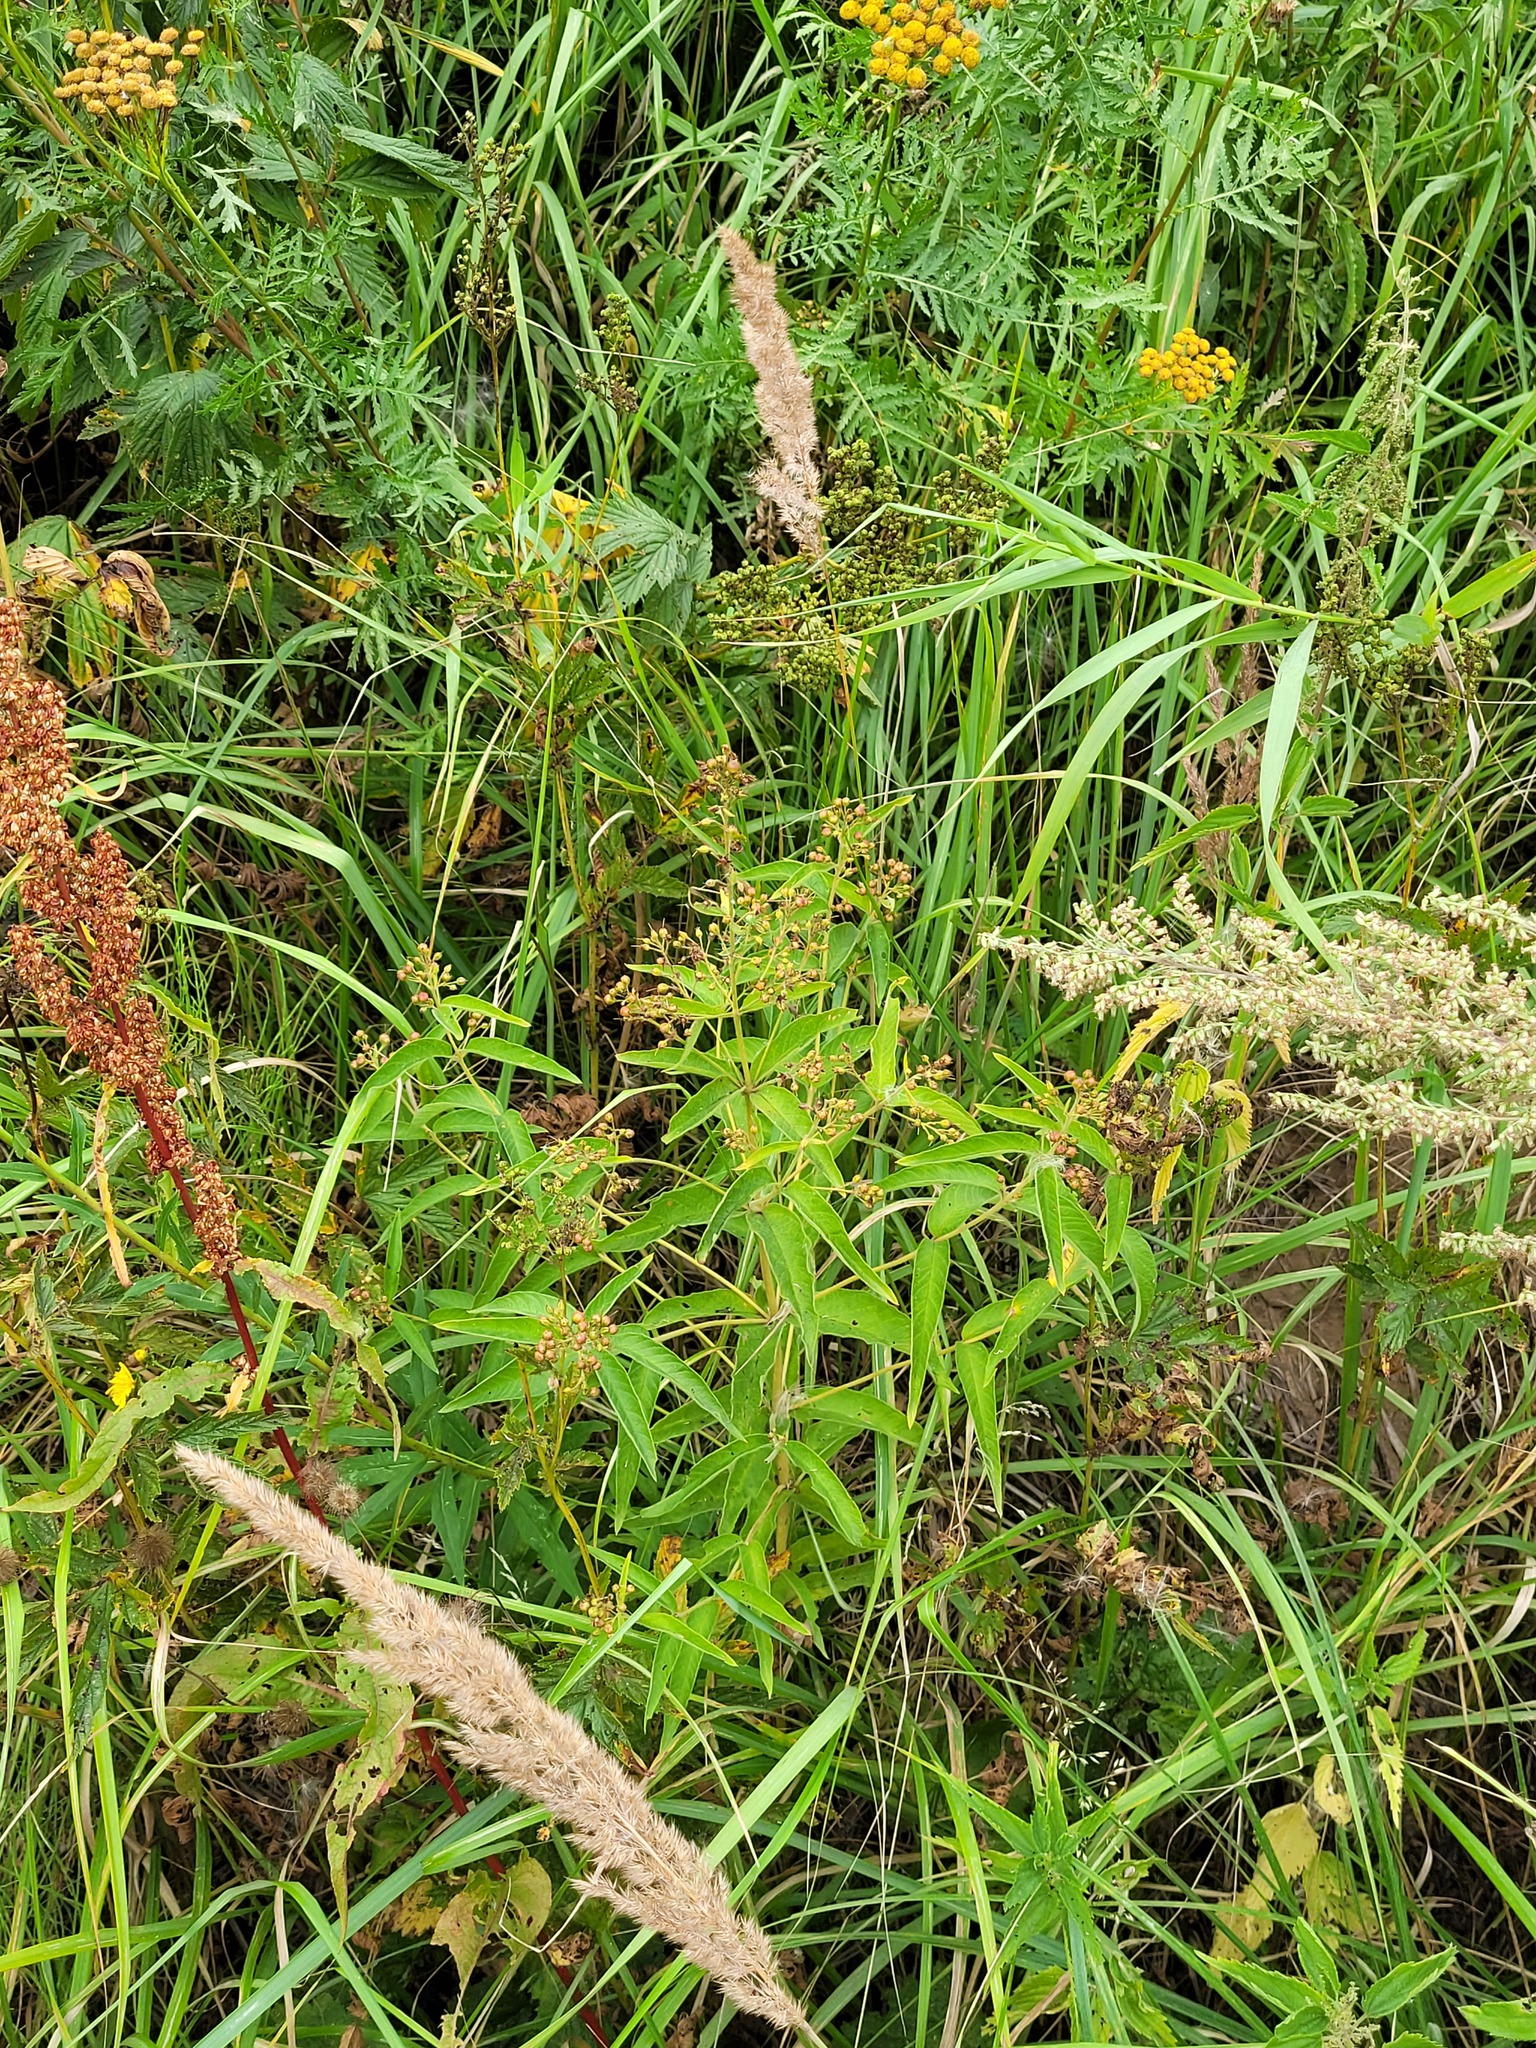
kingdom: Plantae
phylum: Tracheophyta
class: Magnoliopsida
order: Ericales
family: Primulaceae
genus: Lysimachia
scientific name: Lysimachia vulgaris
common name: Yellow loosestrife
